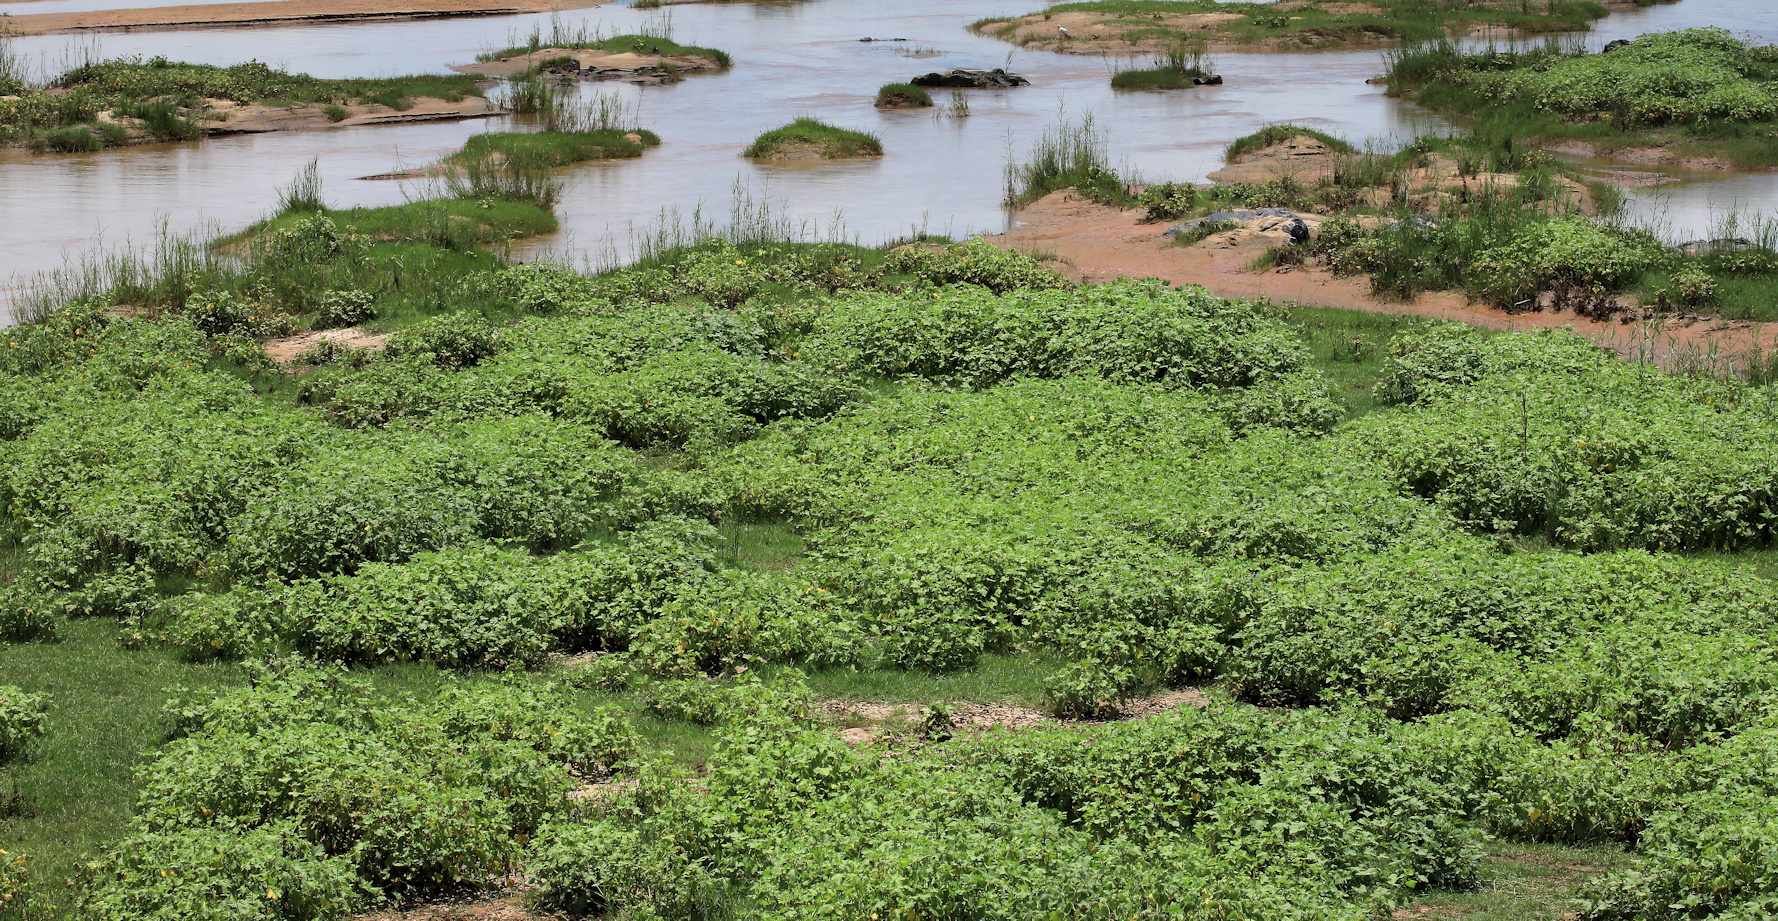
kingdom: Plantae
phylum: Tracheophyta
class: Magnoliopsida
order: Asterales
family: Asteraceae
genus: Xanthium
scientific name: Xanthium strumarium
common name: Rough cocklebur
